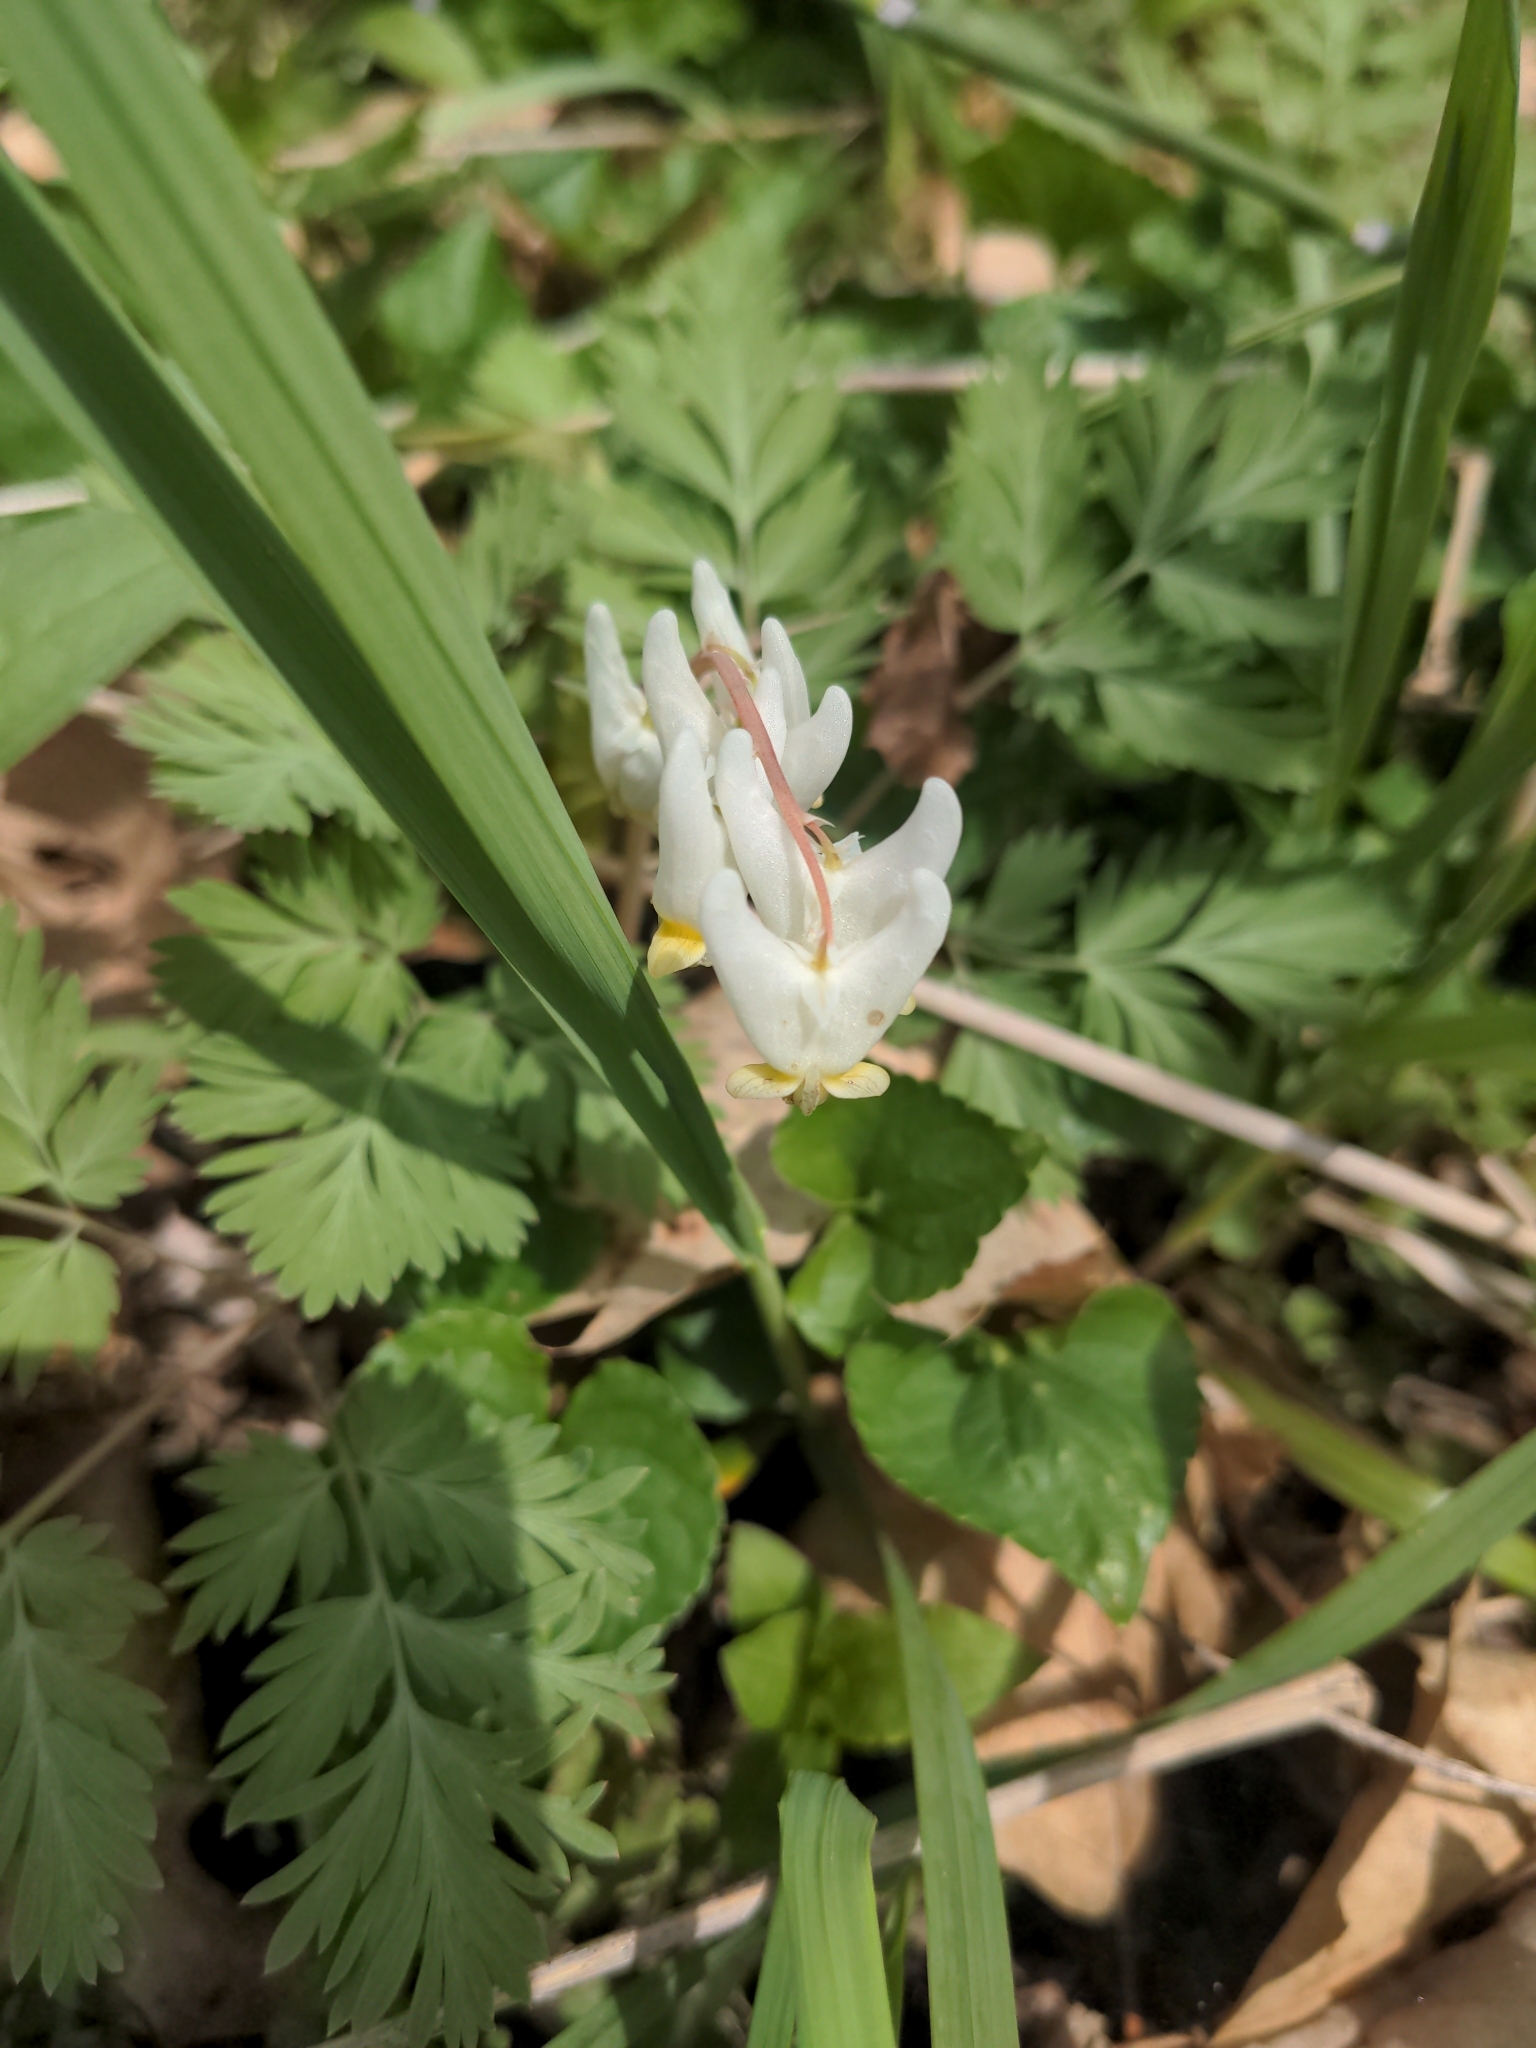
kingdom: Plantae
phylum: Tracheophyta
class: Magnoliopsida
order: Ranunculales
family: Papaveraceae
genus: Dicentra
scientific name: Dicentra cucullaria
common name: Dutchman's breeches
